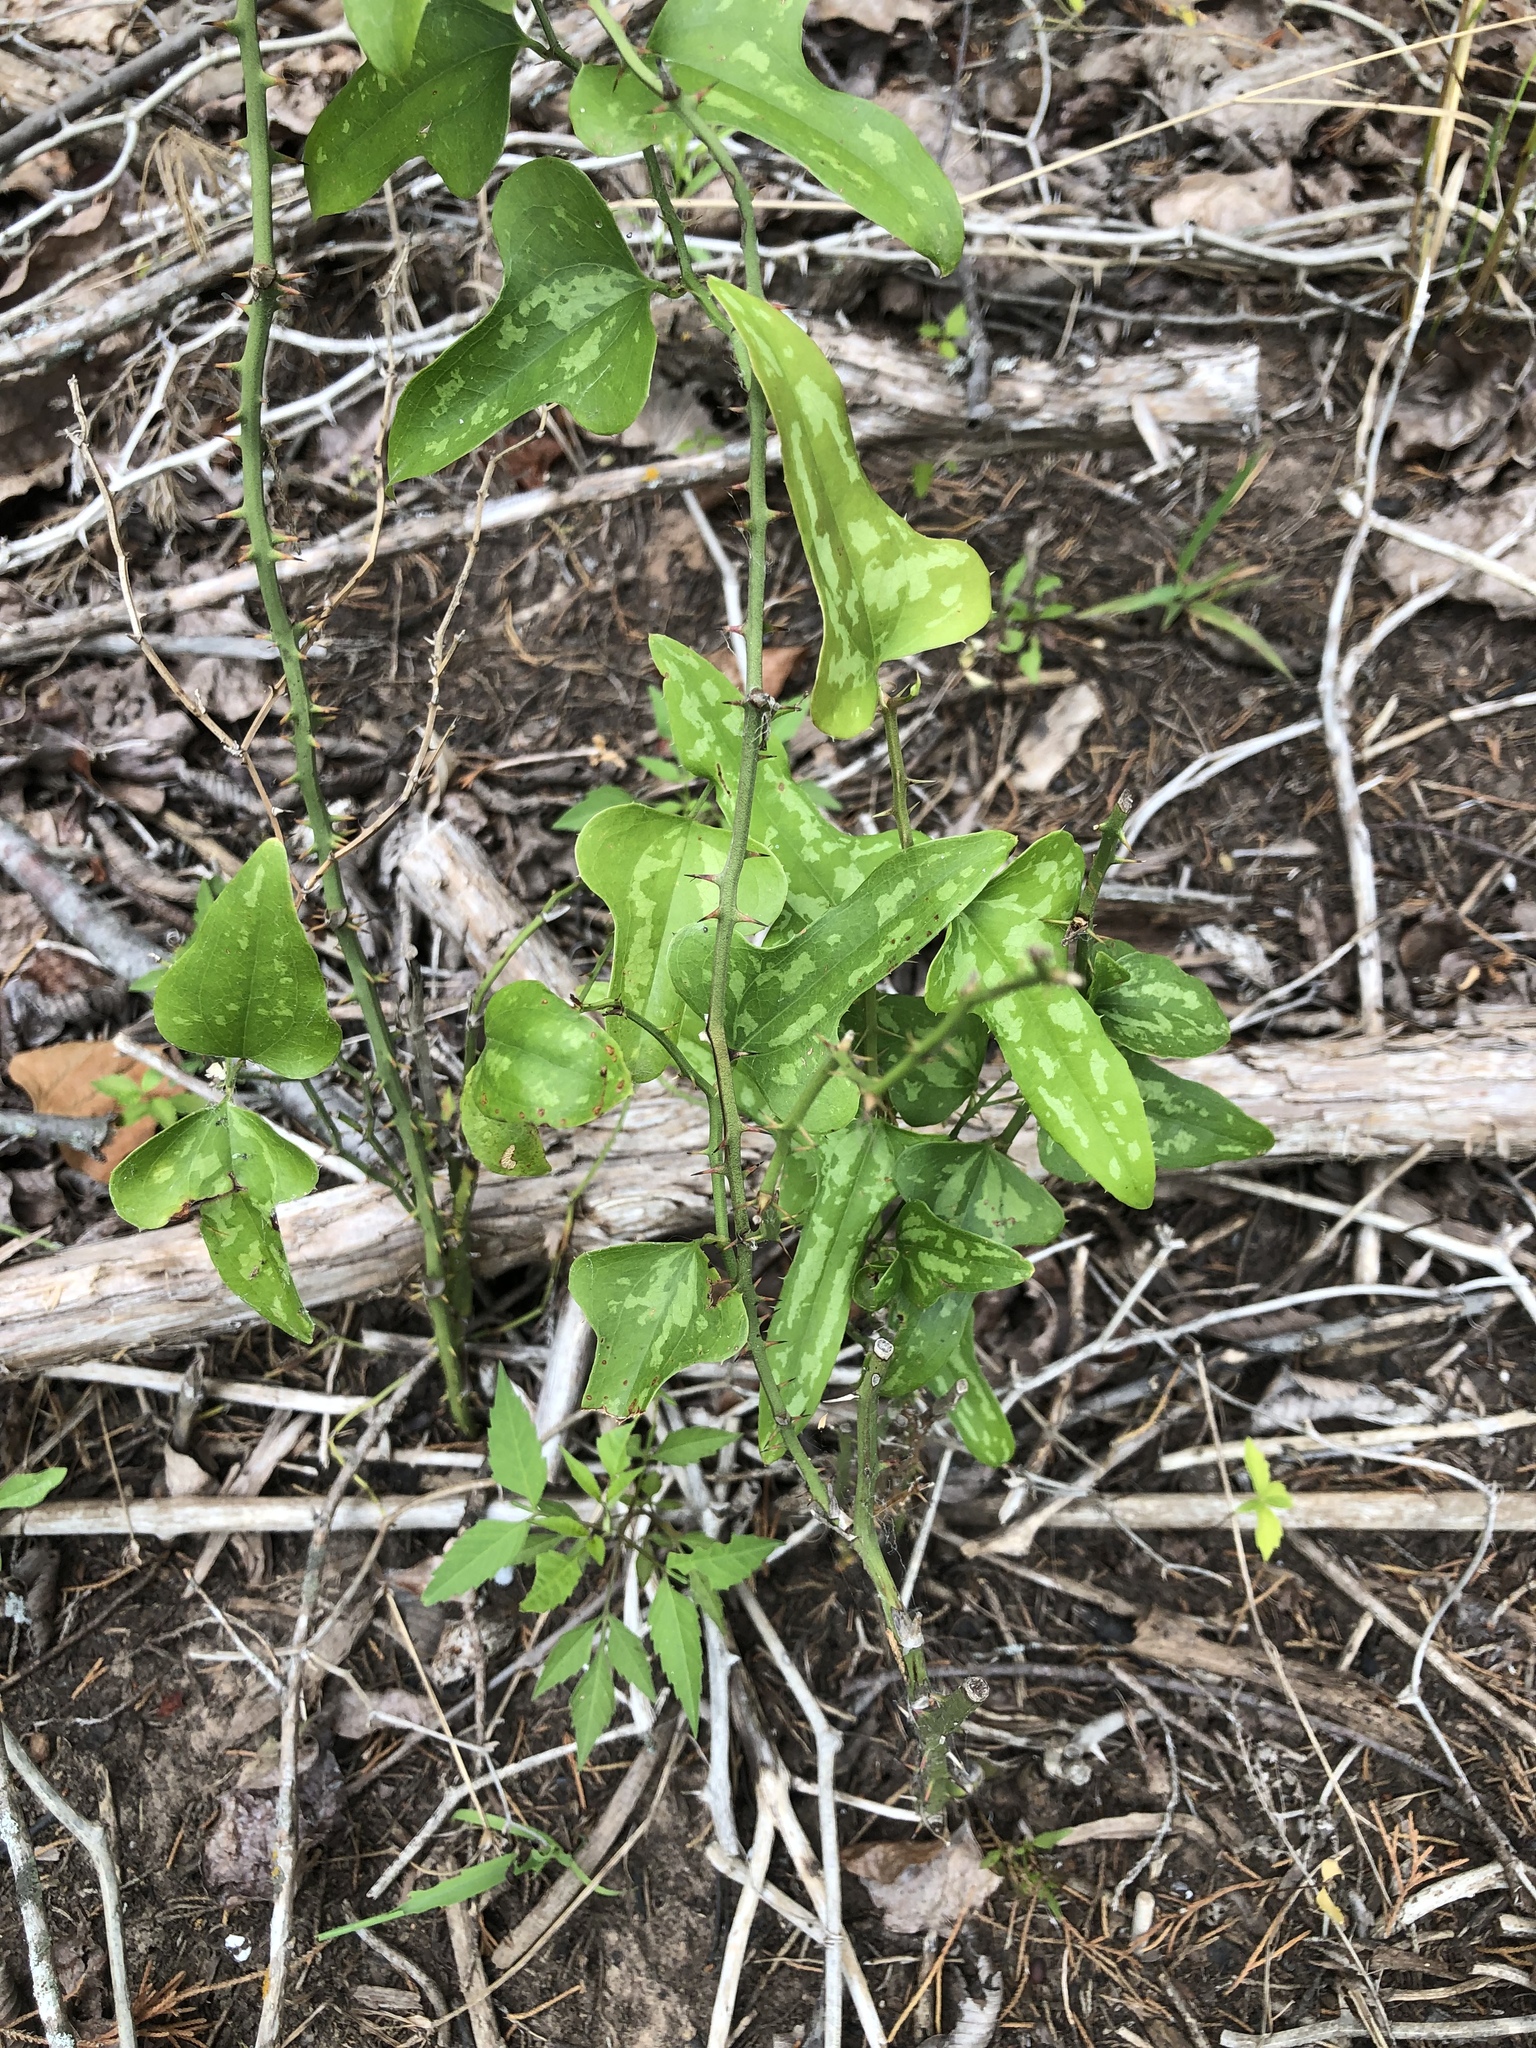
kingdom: Plantae
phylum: Tracheophyta
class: Liliopsida
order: Liliales
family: Smilacaceae
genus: Smilax
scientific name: Smilax bona-nox
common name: Catbrier
